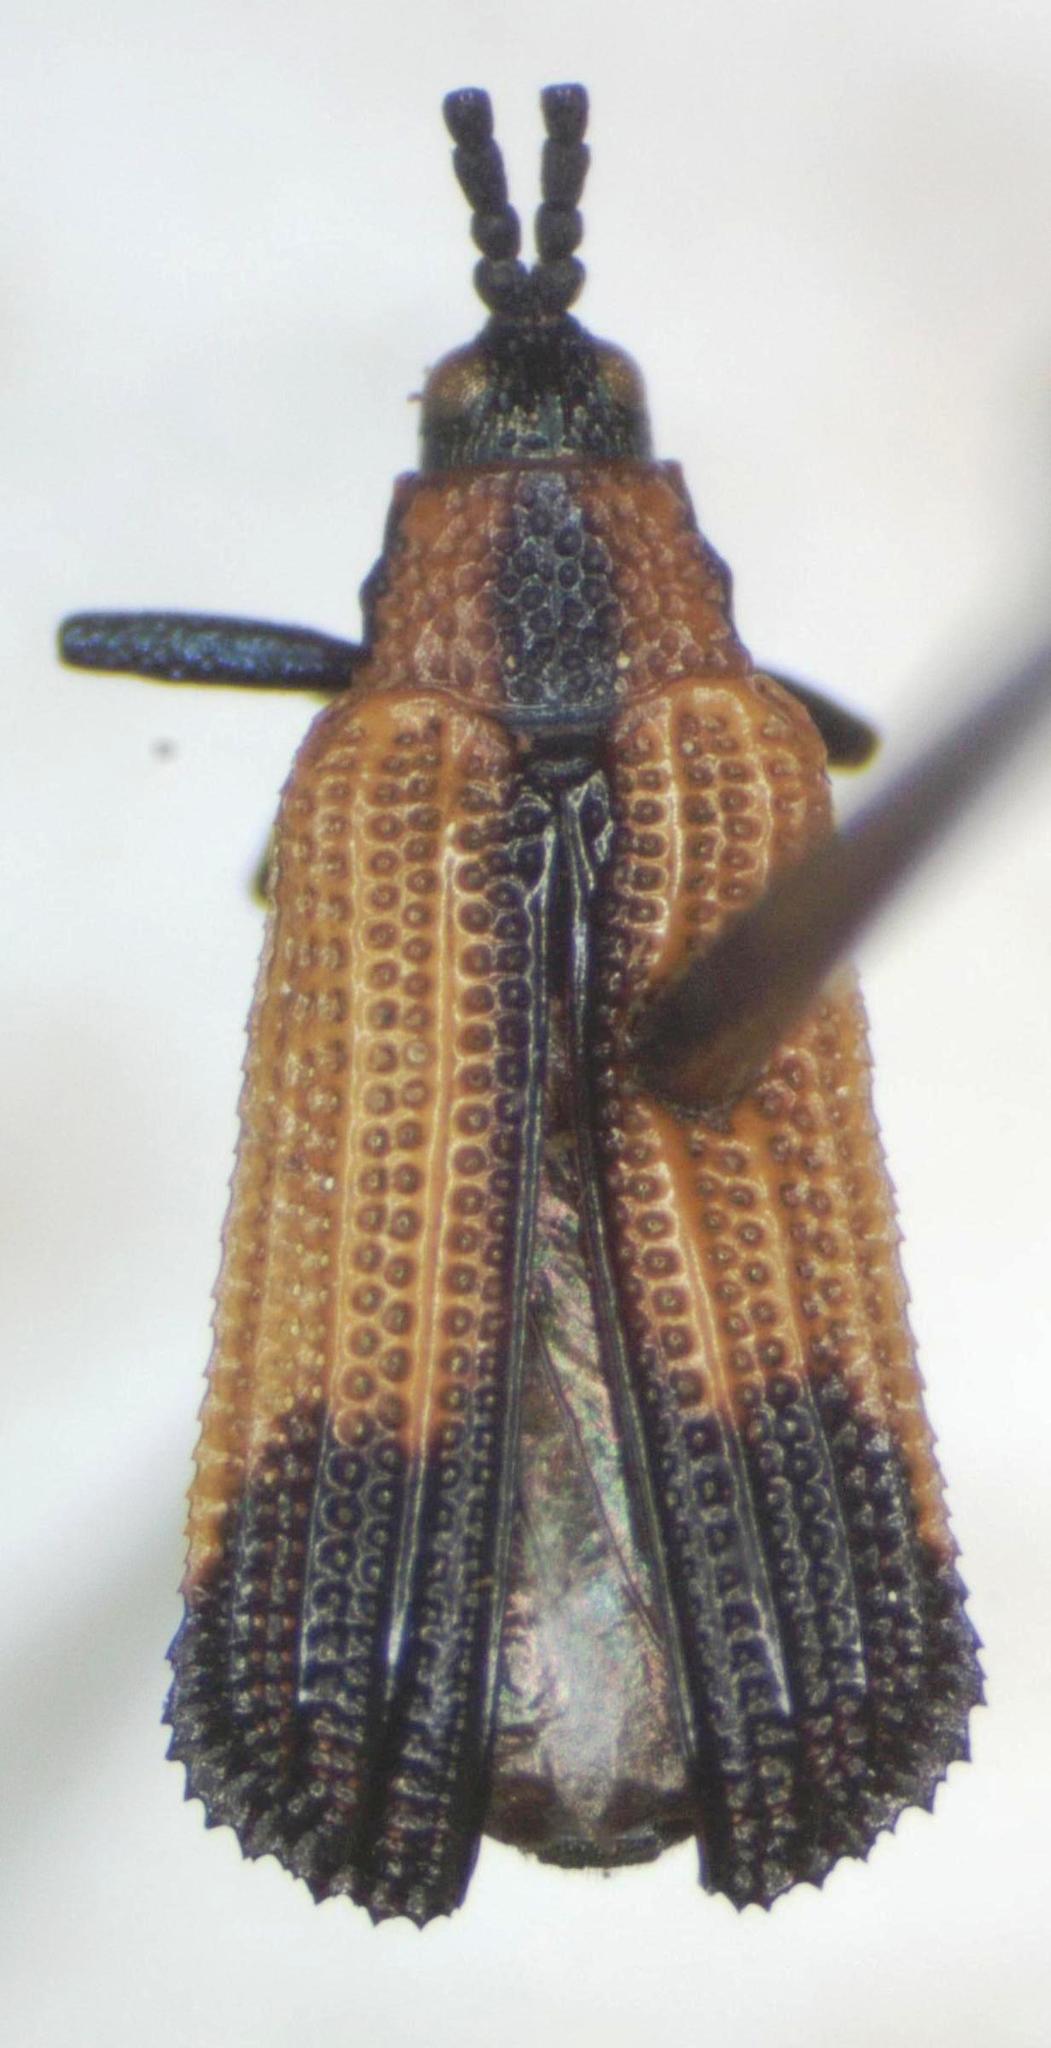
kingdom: Animalia
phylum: Arthropoda
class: Insecta
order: Coleoptera
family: Chrysomelidae
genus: Pentispa
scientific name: Pentispa melanura
